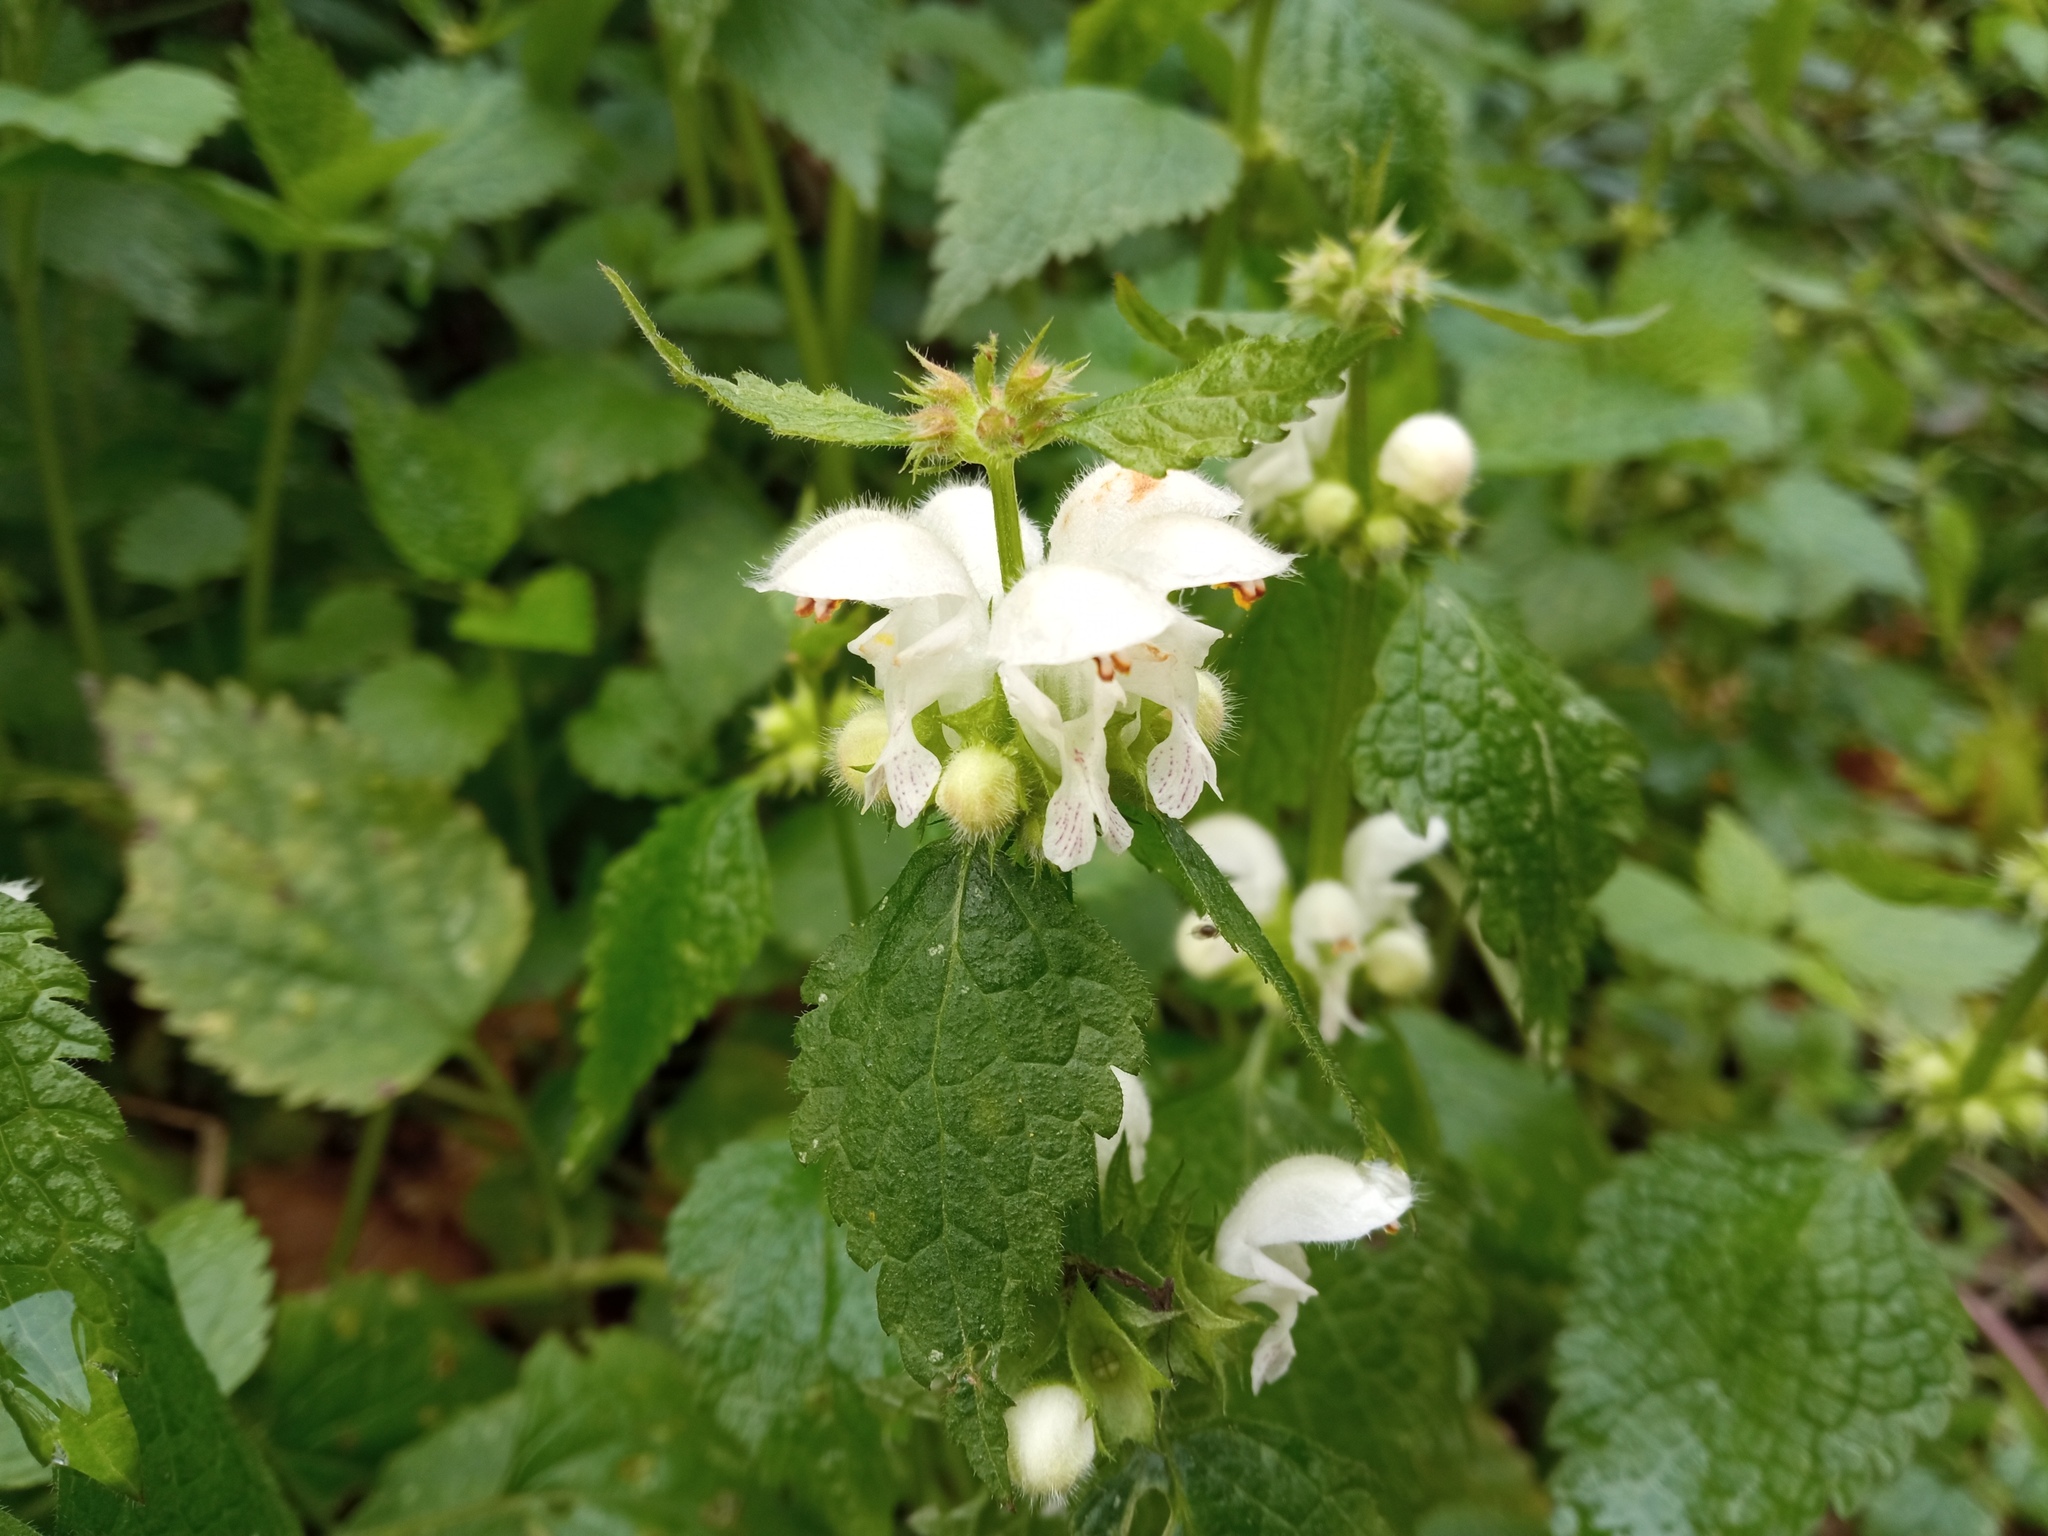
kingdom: Plantae
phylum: Tracheophyta
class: Magnoliopsida
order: Lamiales
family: Lamiaceae
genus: Lamium
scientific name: Lamium flexuosum
